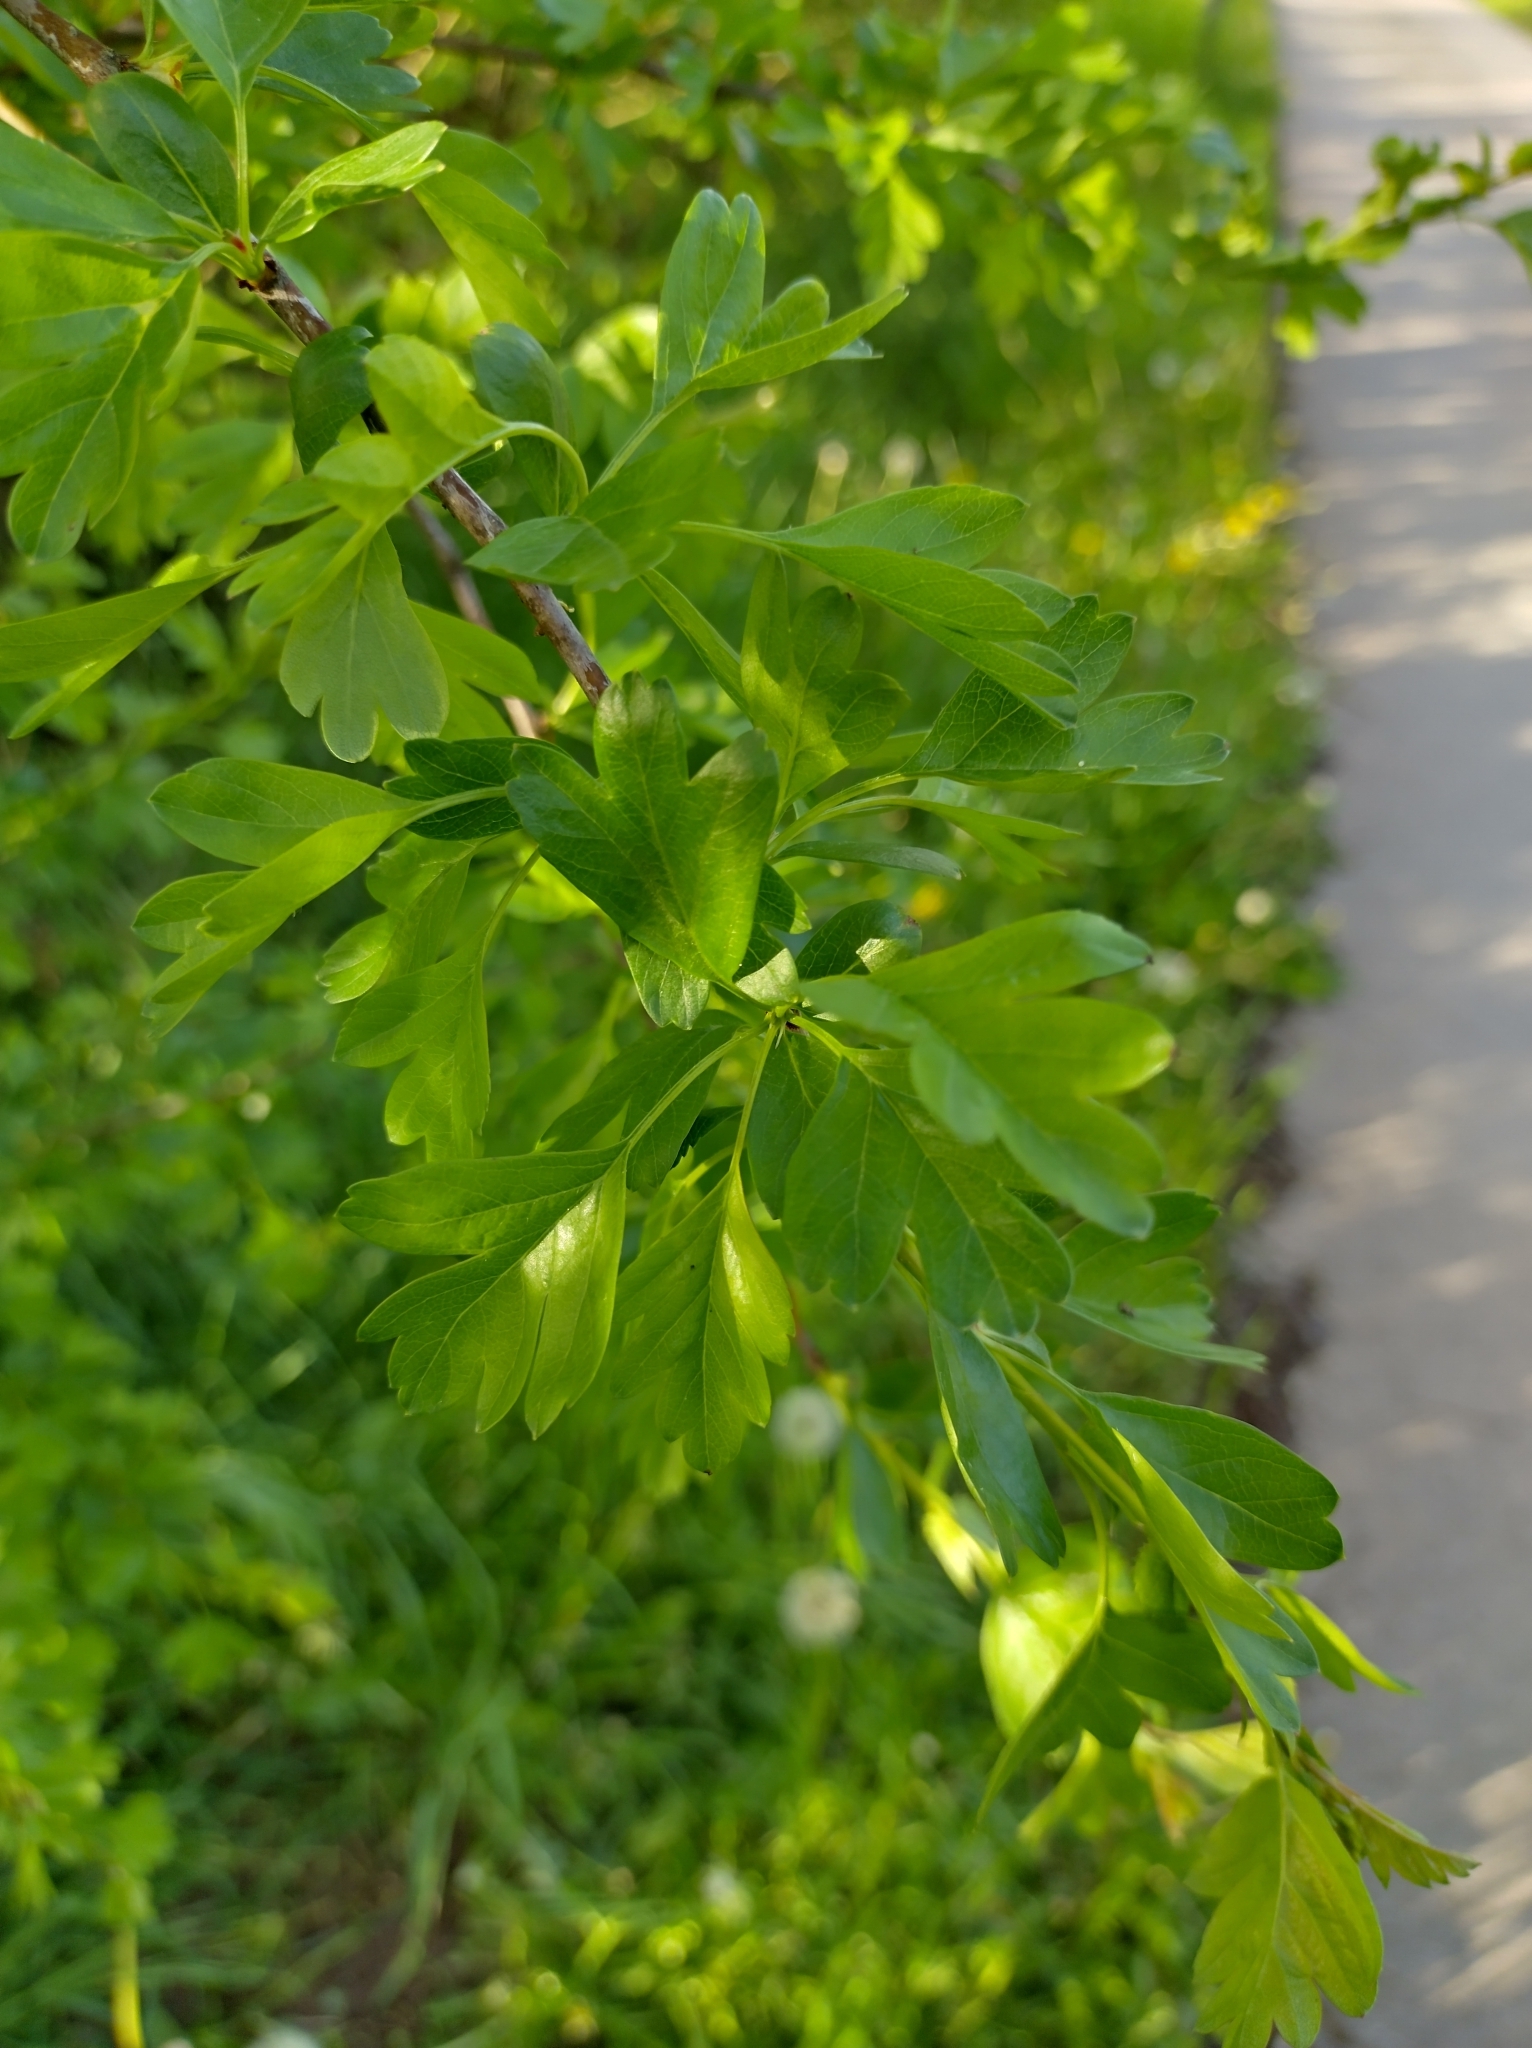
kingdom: Plantae
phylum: Tracheophyta
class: Magnoliopsida
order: Rosales
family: Rosaceae
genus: Crataegus
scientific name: Crataegus monogyna
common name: Hawthorn
